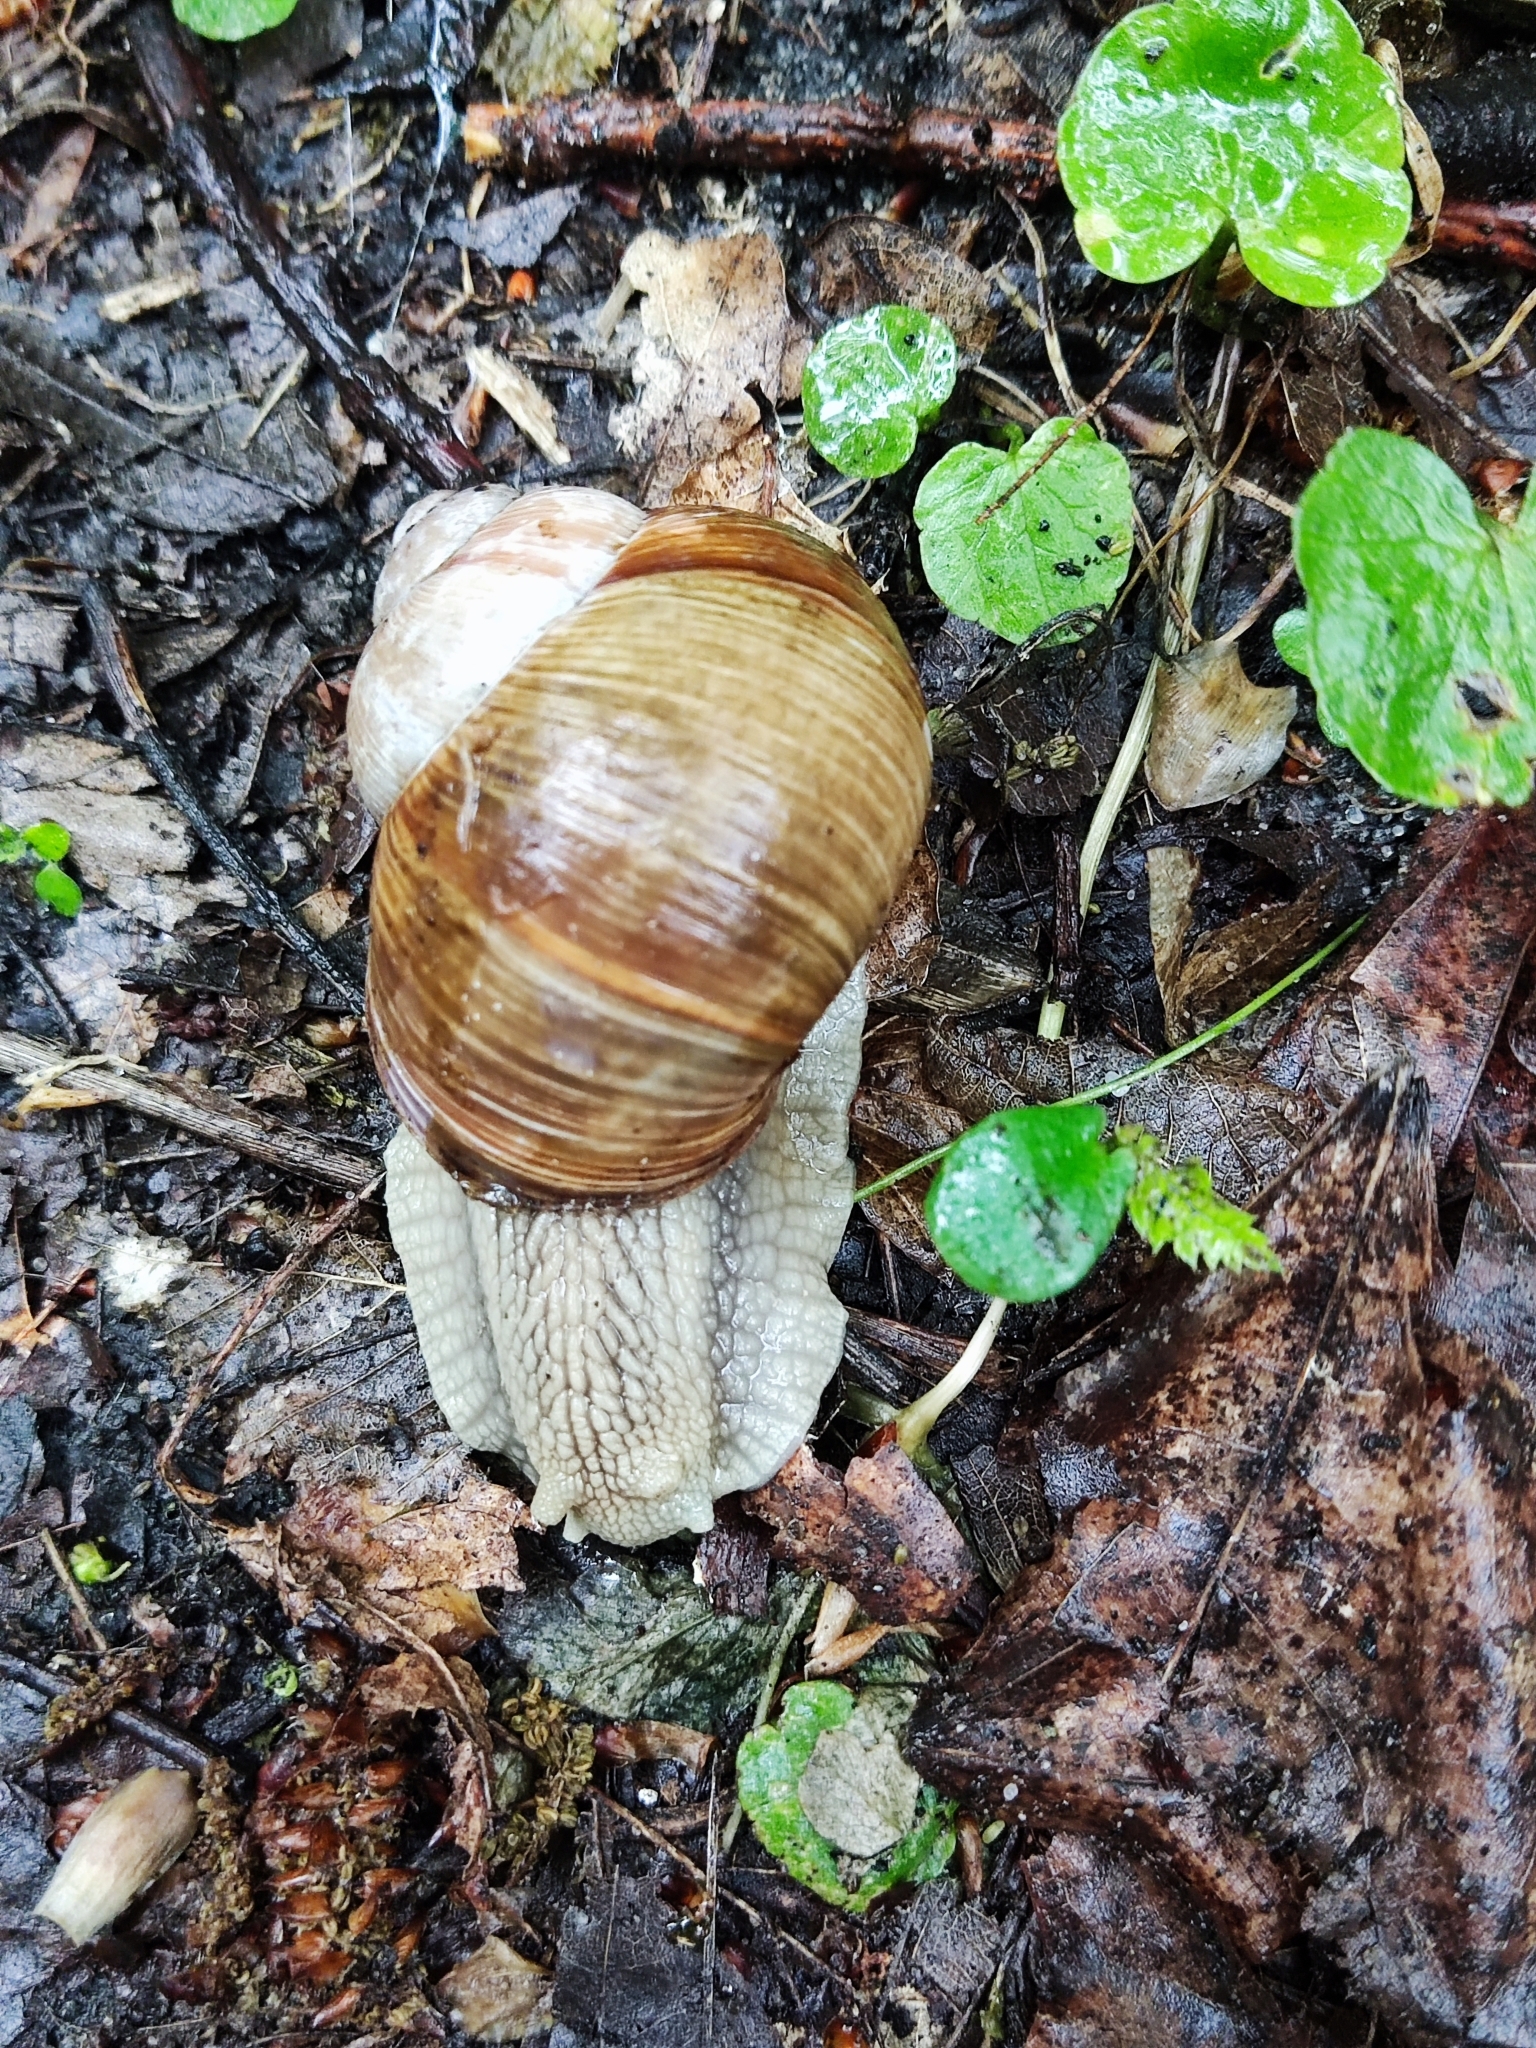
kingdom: Animalia
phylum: Mollusca
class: Gastropoda
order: Stylommatophora
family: Helicidae
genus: Helix
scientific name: Helix pomatia
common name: Roman snail
